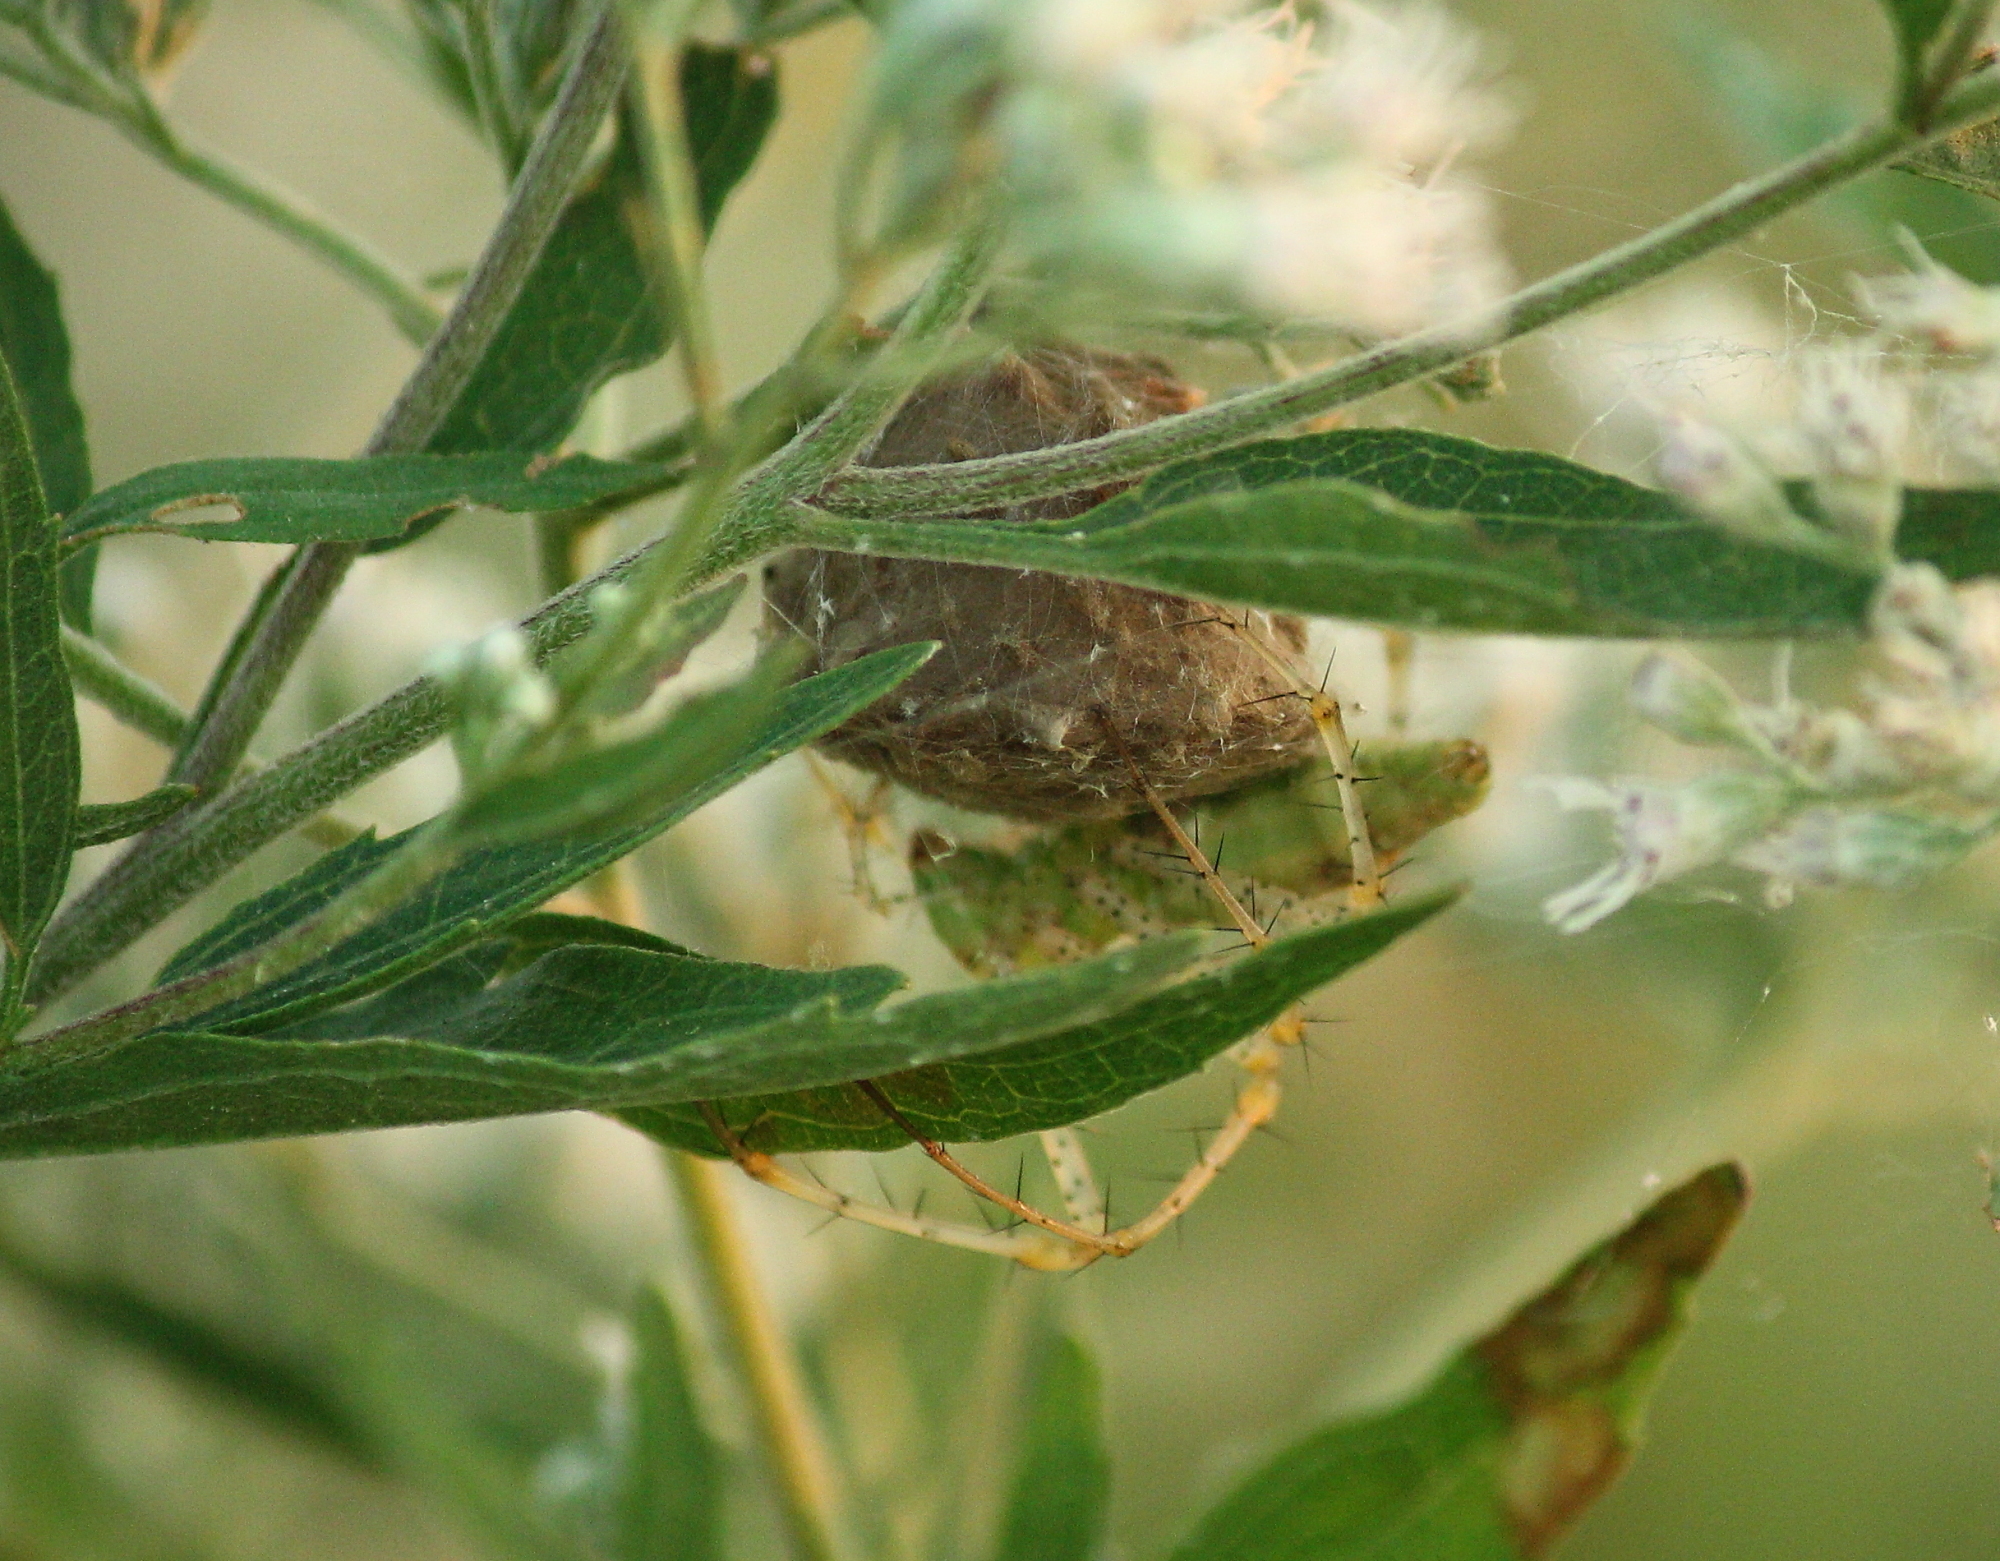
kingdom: Animalia
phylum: Arthropoda
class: Arachnida
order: Araneae
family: Oxyopidae
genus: Peucetia
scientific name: Peucetia viridans
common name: Lynx spiders
